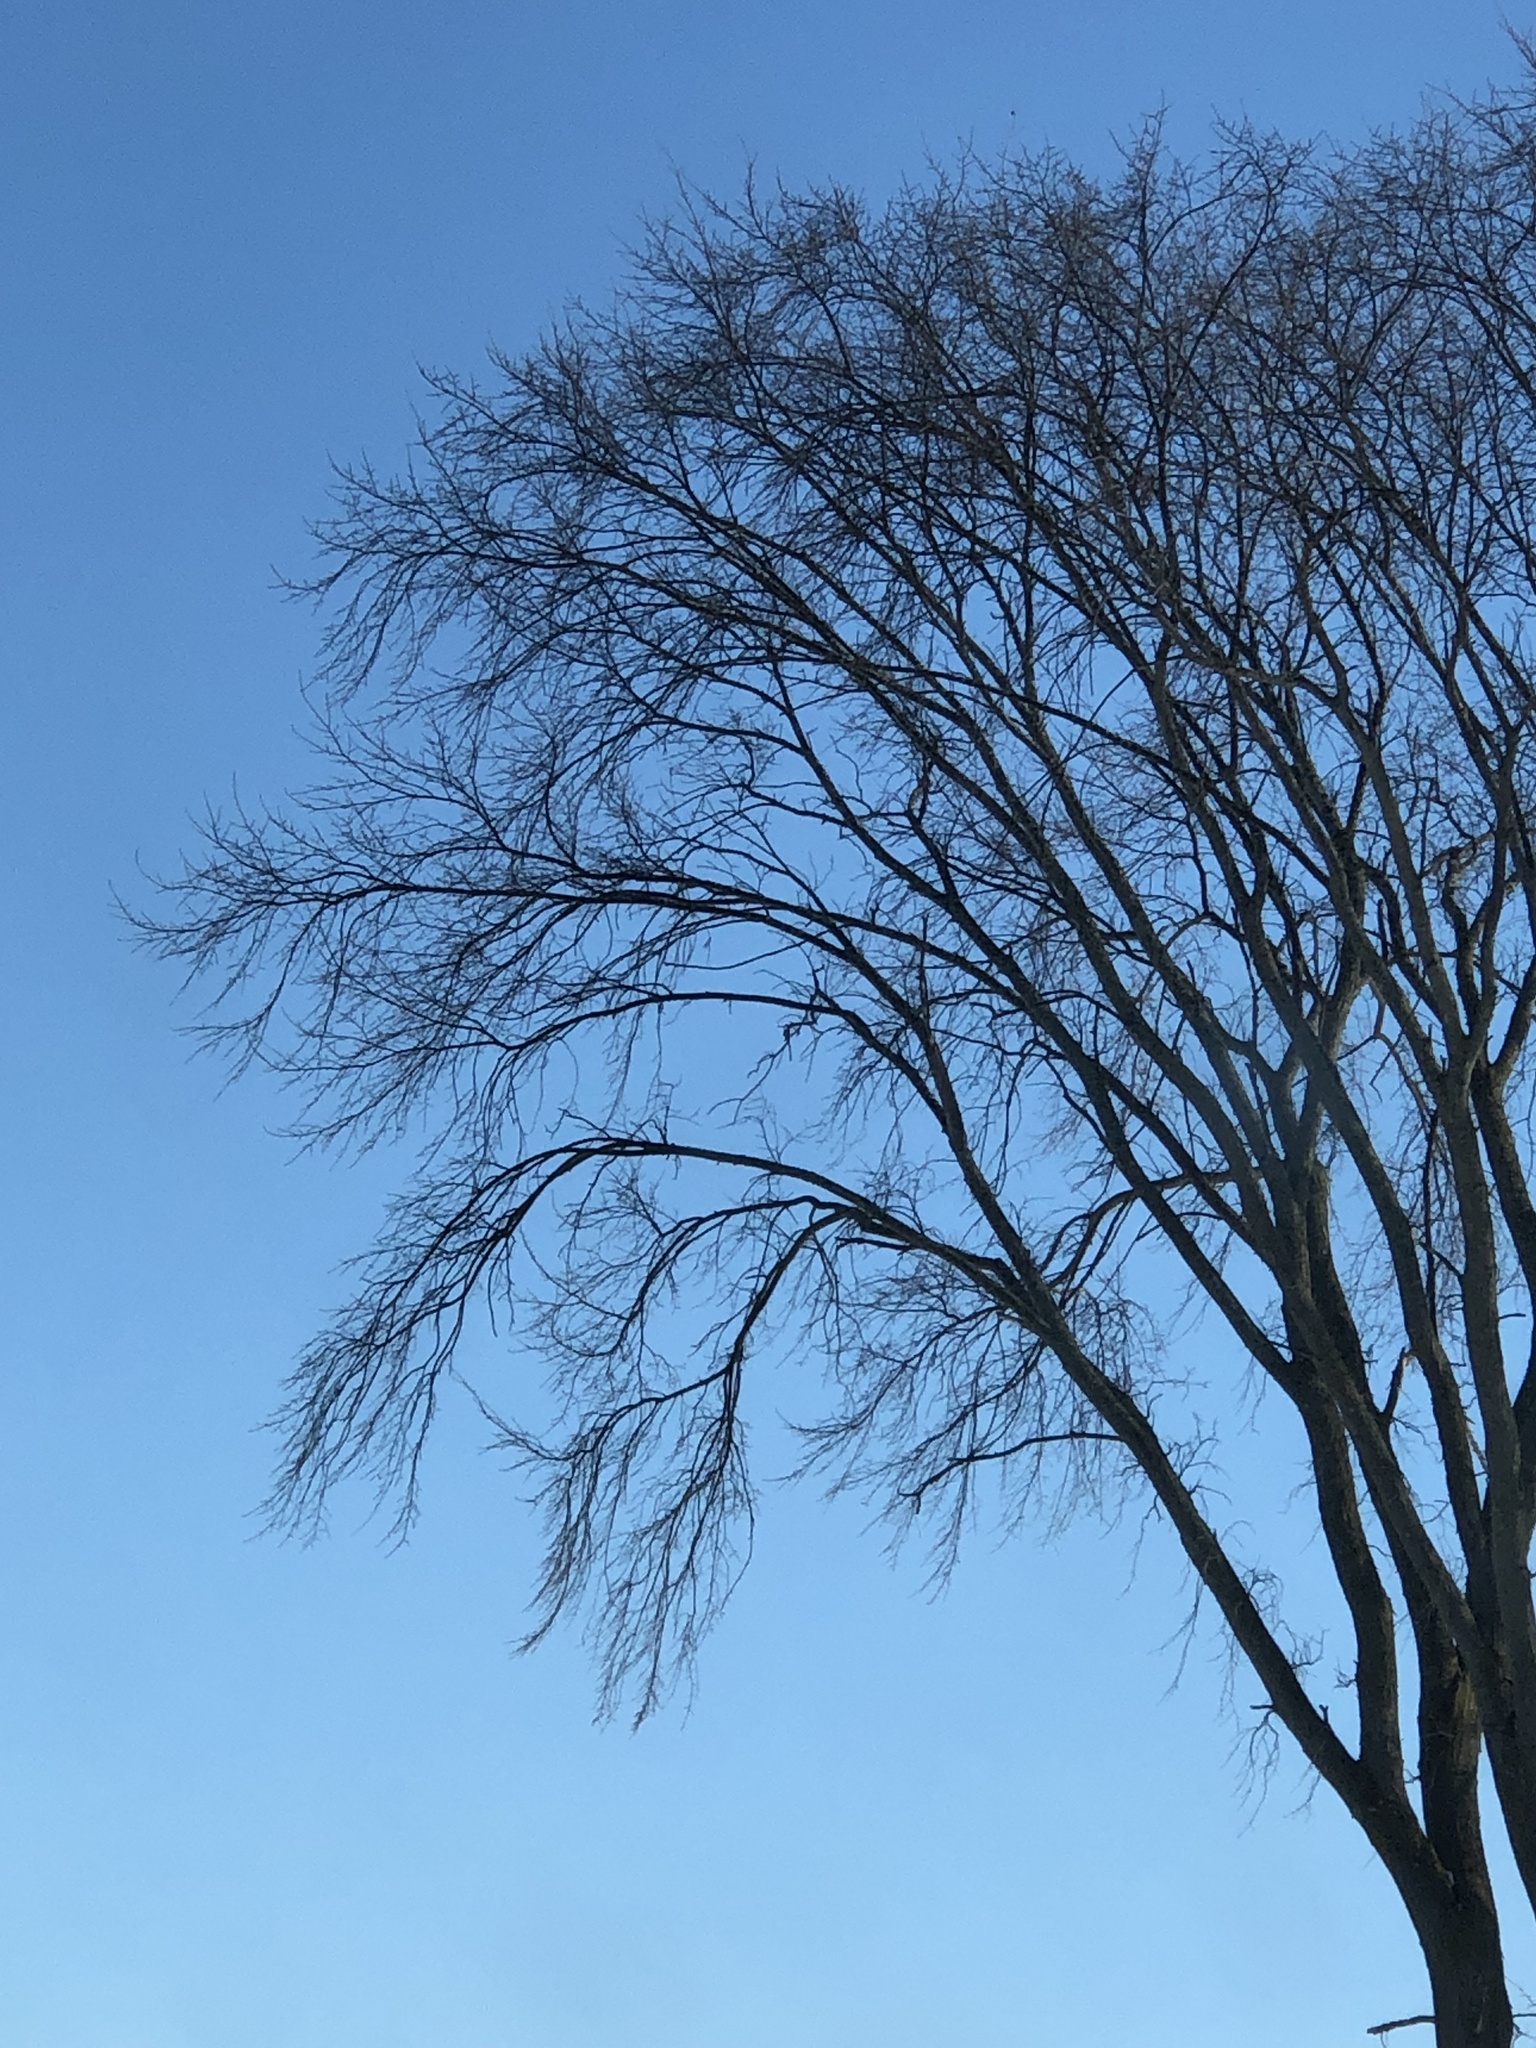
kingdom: Plantae
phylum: Tracheophyta
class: Magnoliopsida
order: Rosales
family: Ulmaceae
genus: Ulmus
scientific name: Ulmus americana
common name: American elm
